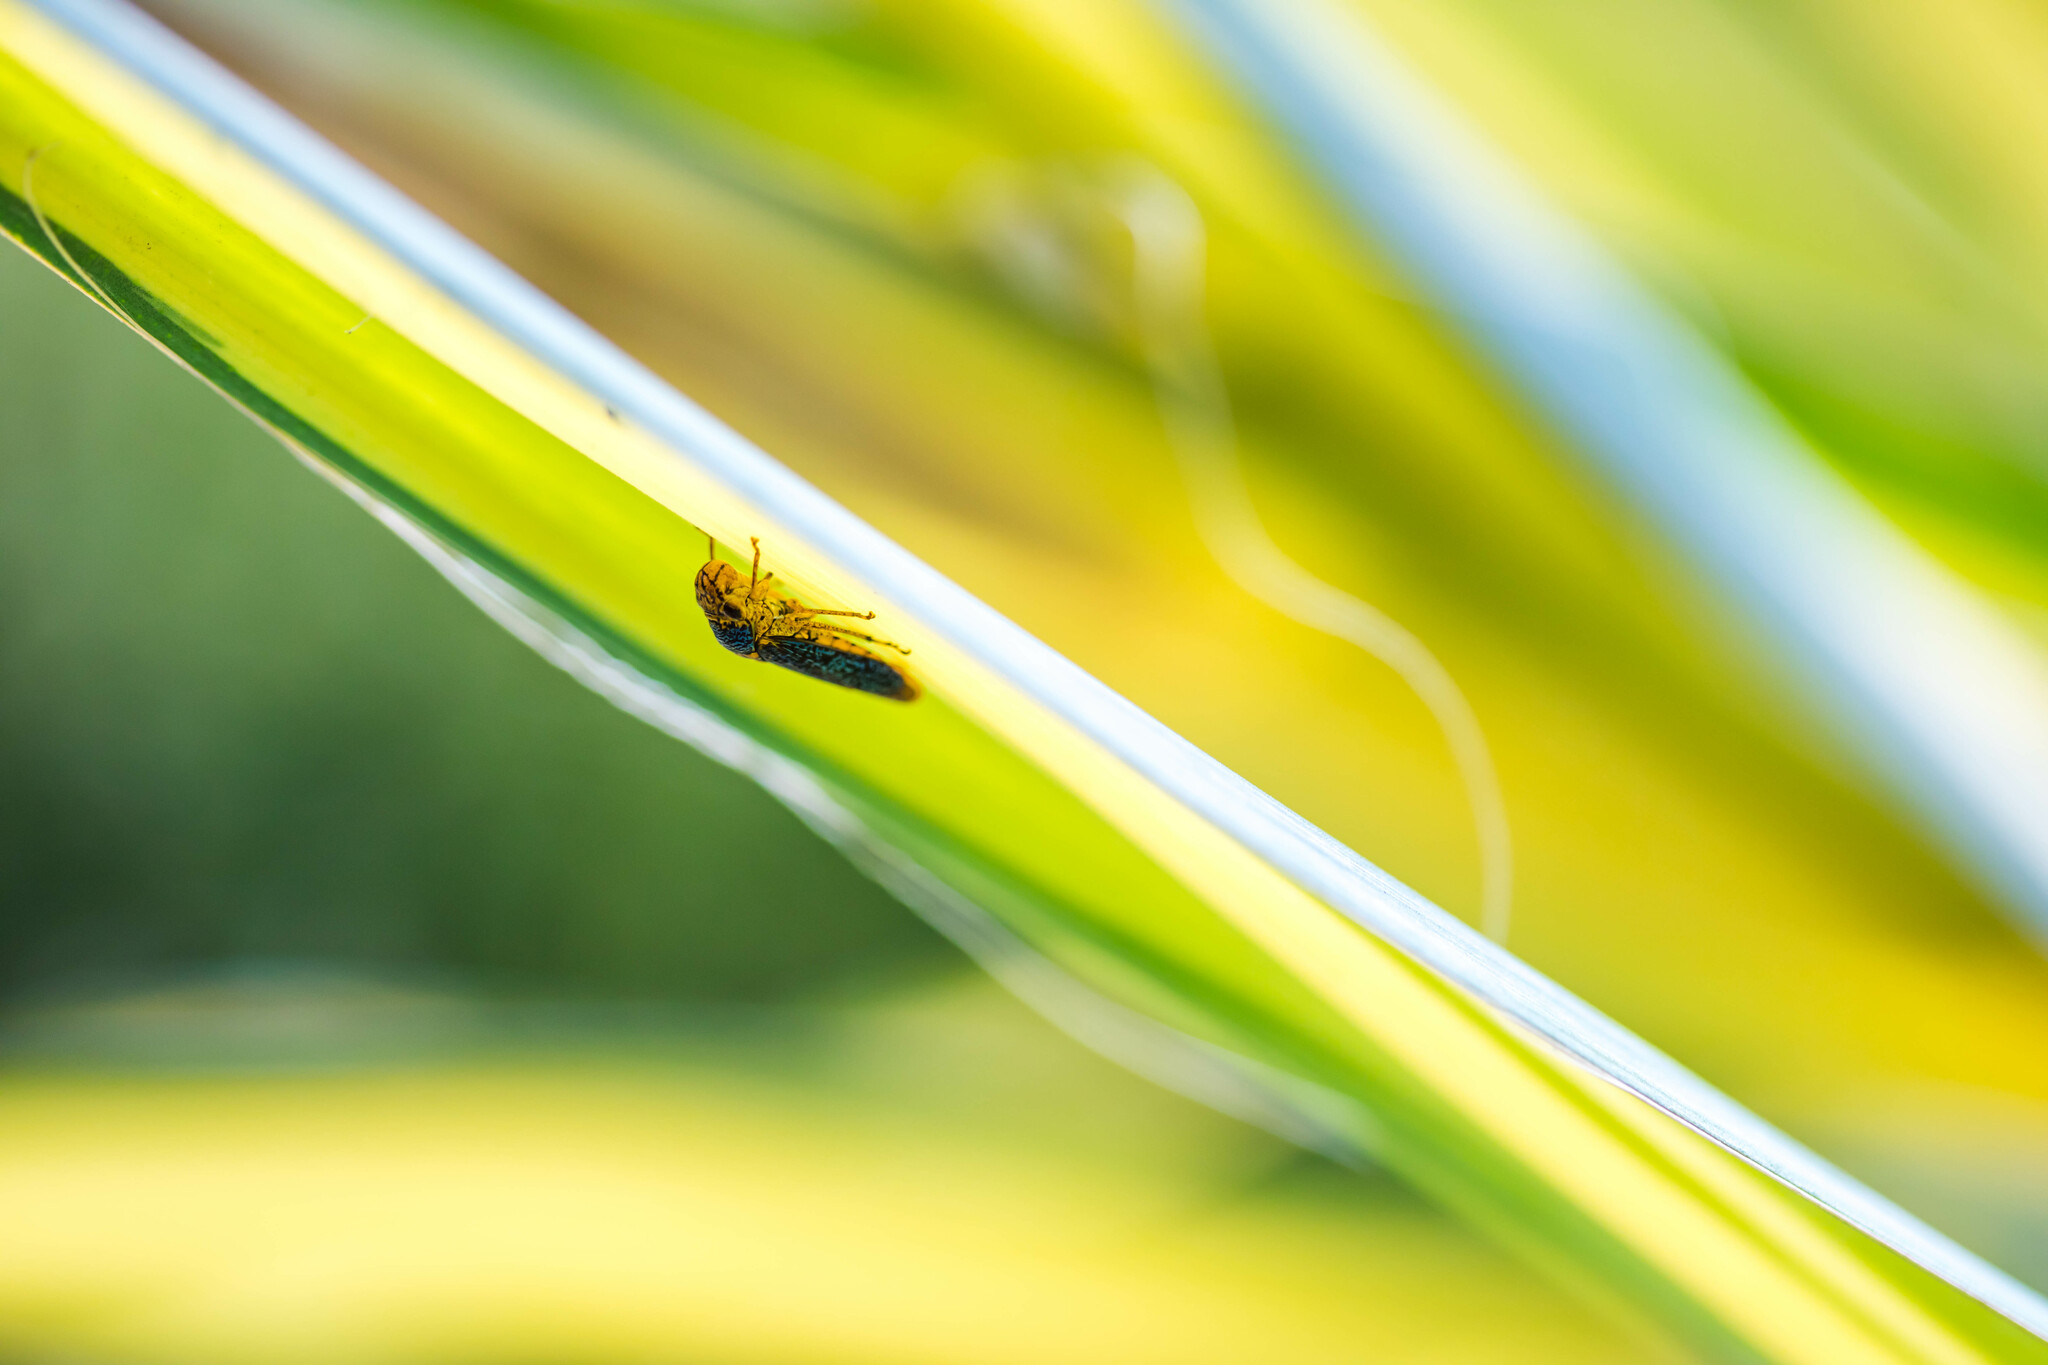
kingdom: Animalia
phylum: Arthropoda
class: Insecta
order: Hemiptera
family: Cicadellidae
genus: Oncometopia
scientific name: Oncometopia orbona
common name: Broad-headed sharpshooter
